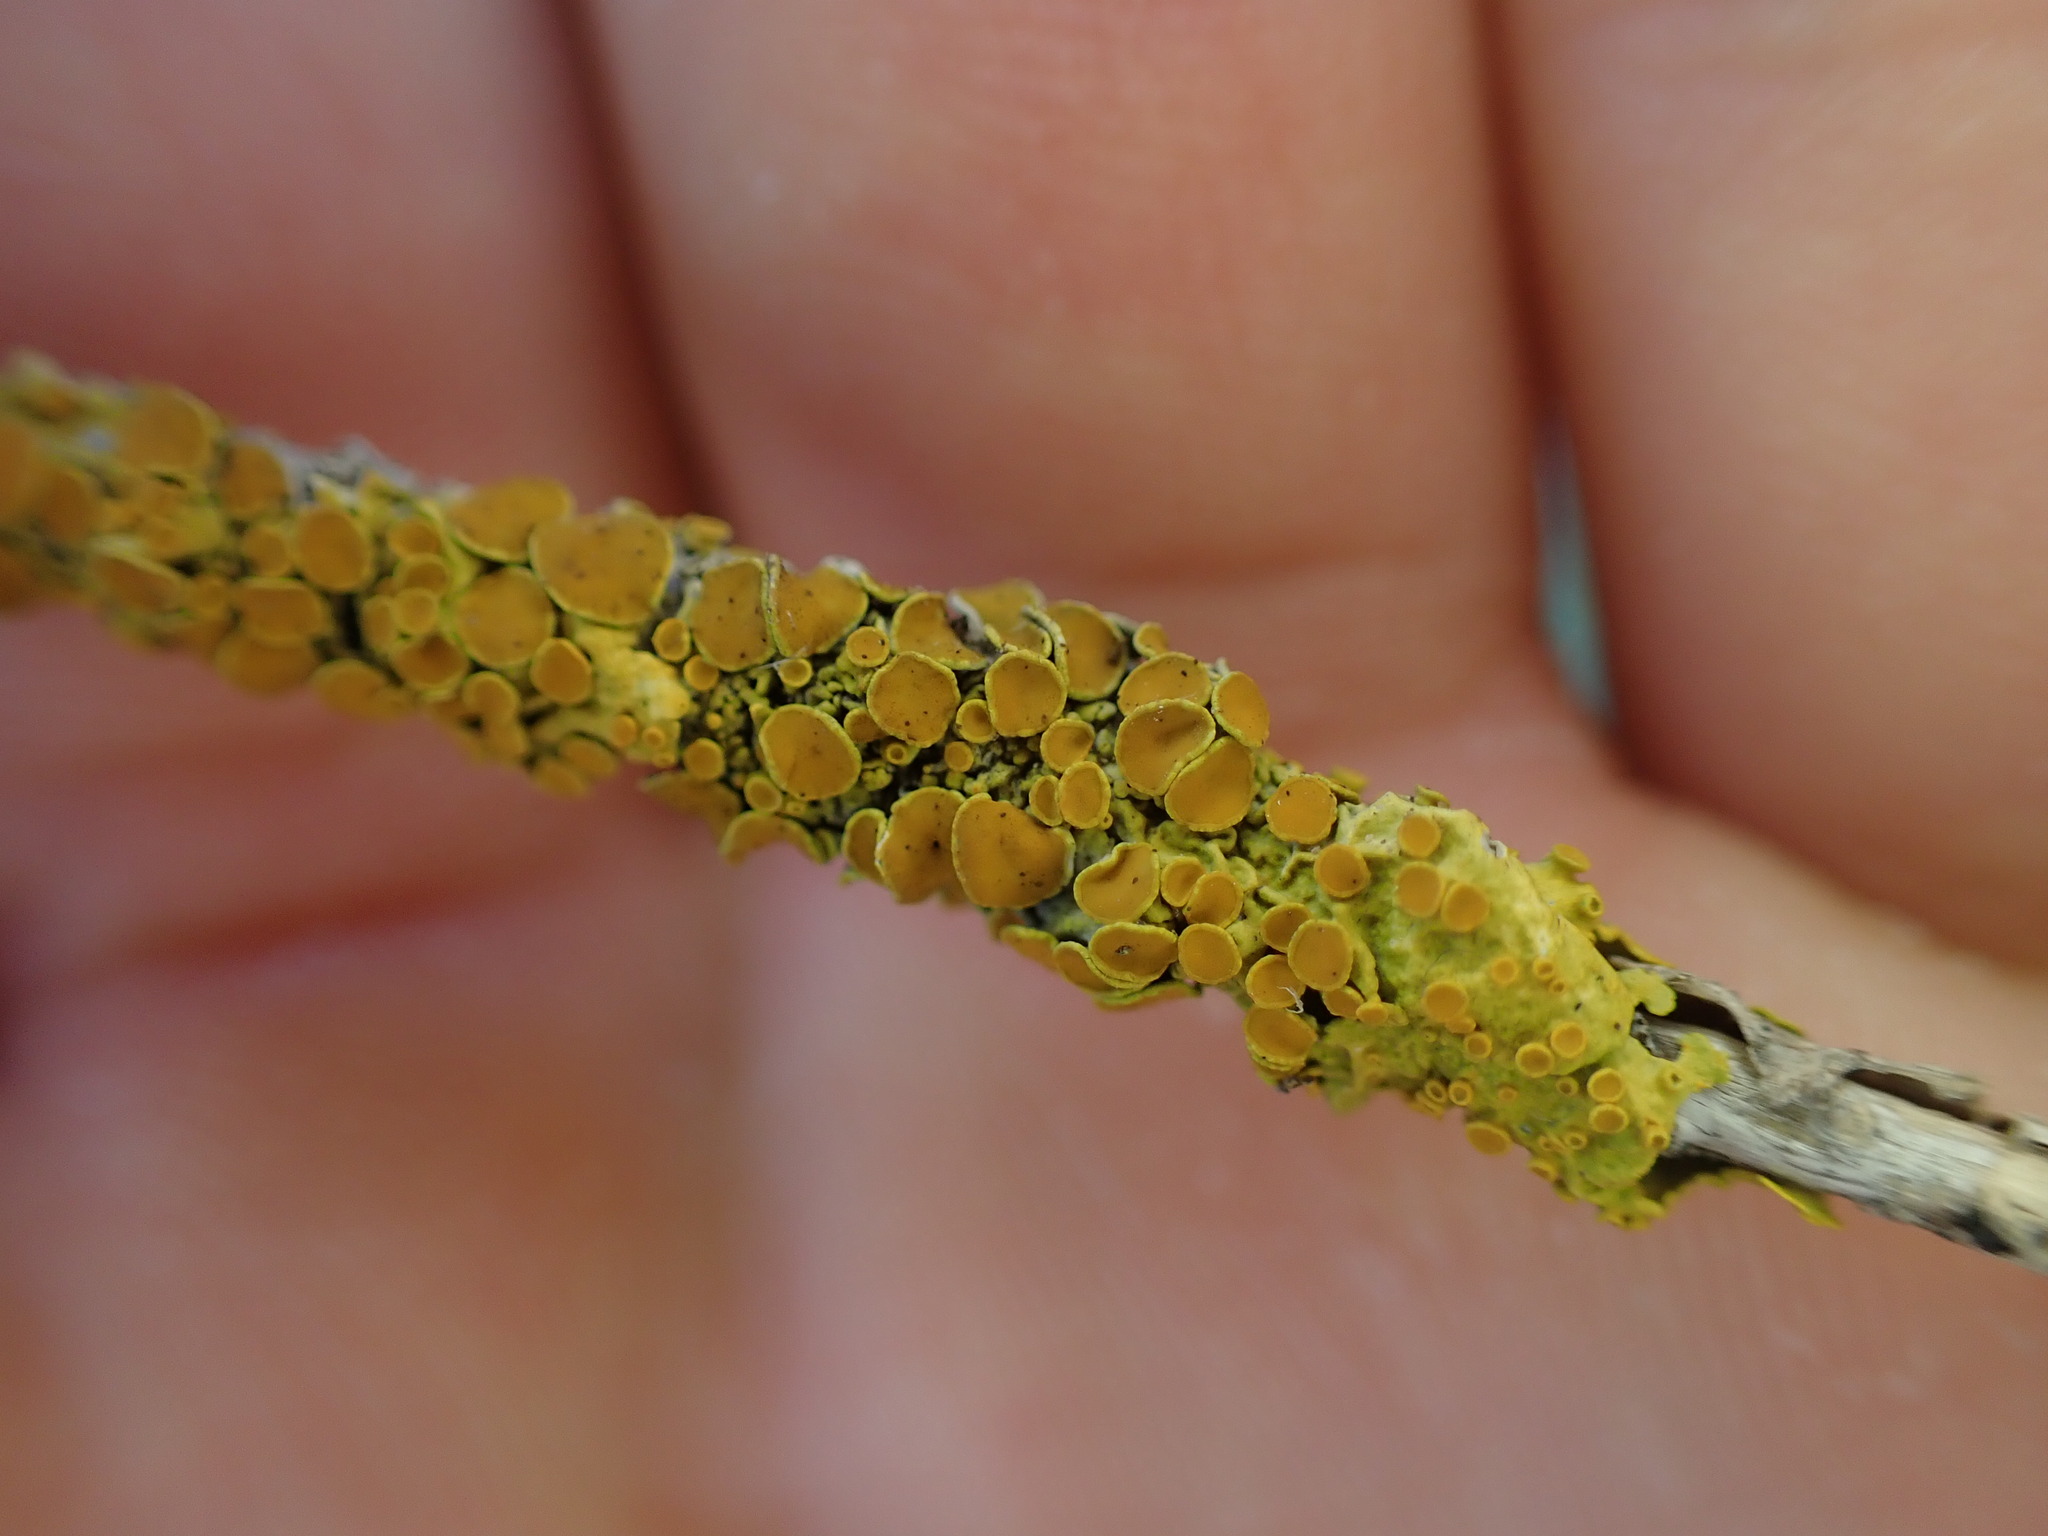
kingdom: Fungi
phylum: Ascomycota
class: Lecanoromycetes
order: Teloschistales
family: Teloschistaceae
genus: Xanthoria
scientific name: Xanthoria parietina
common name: Common orange lichen
